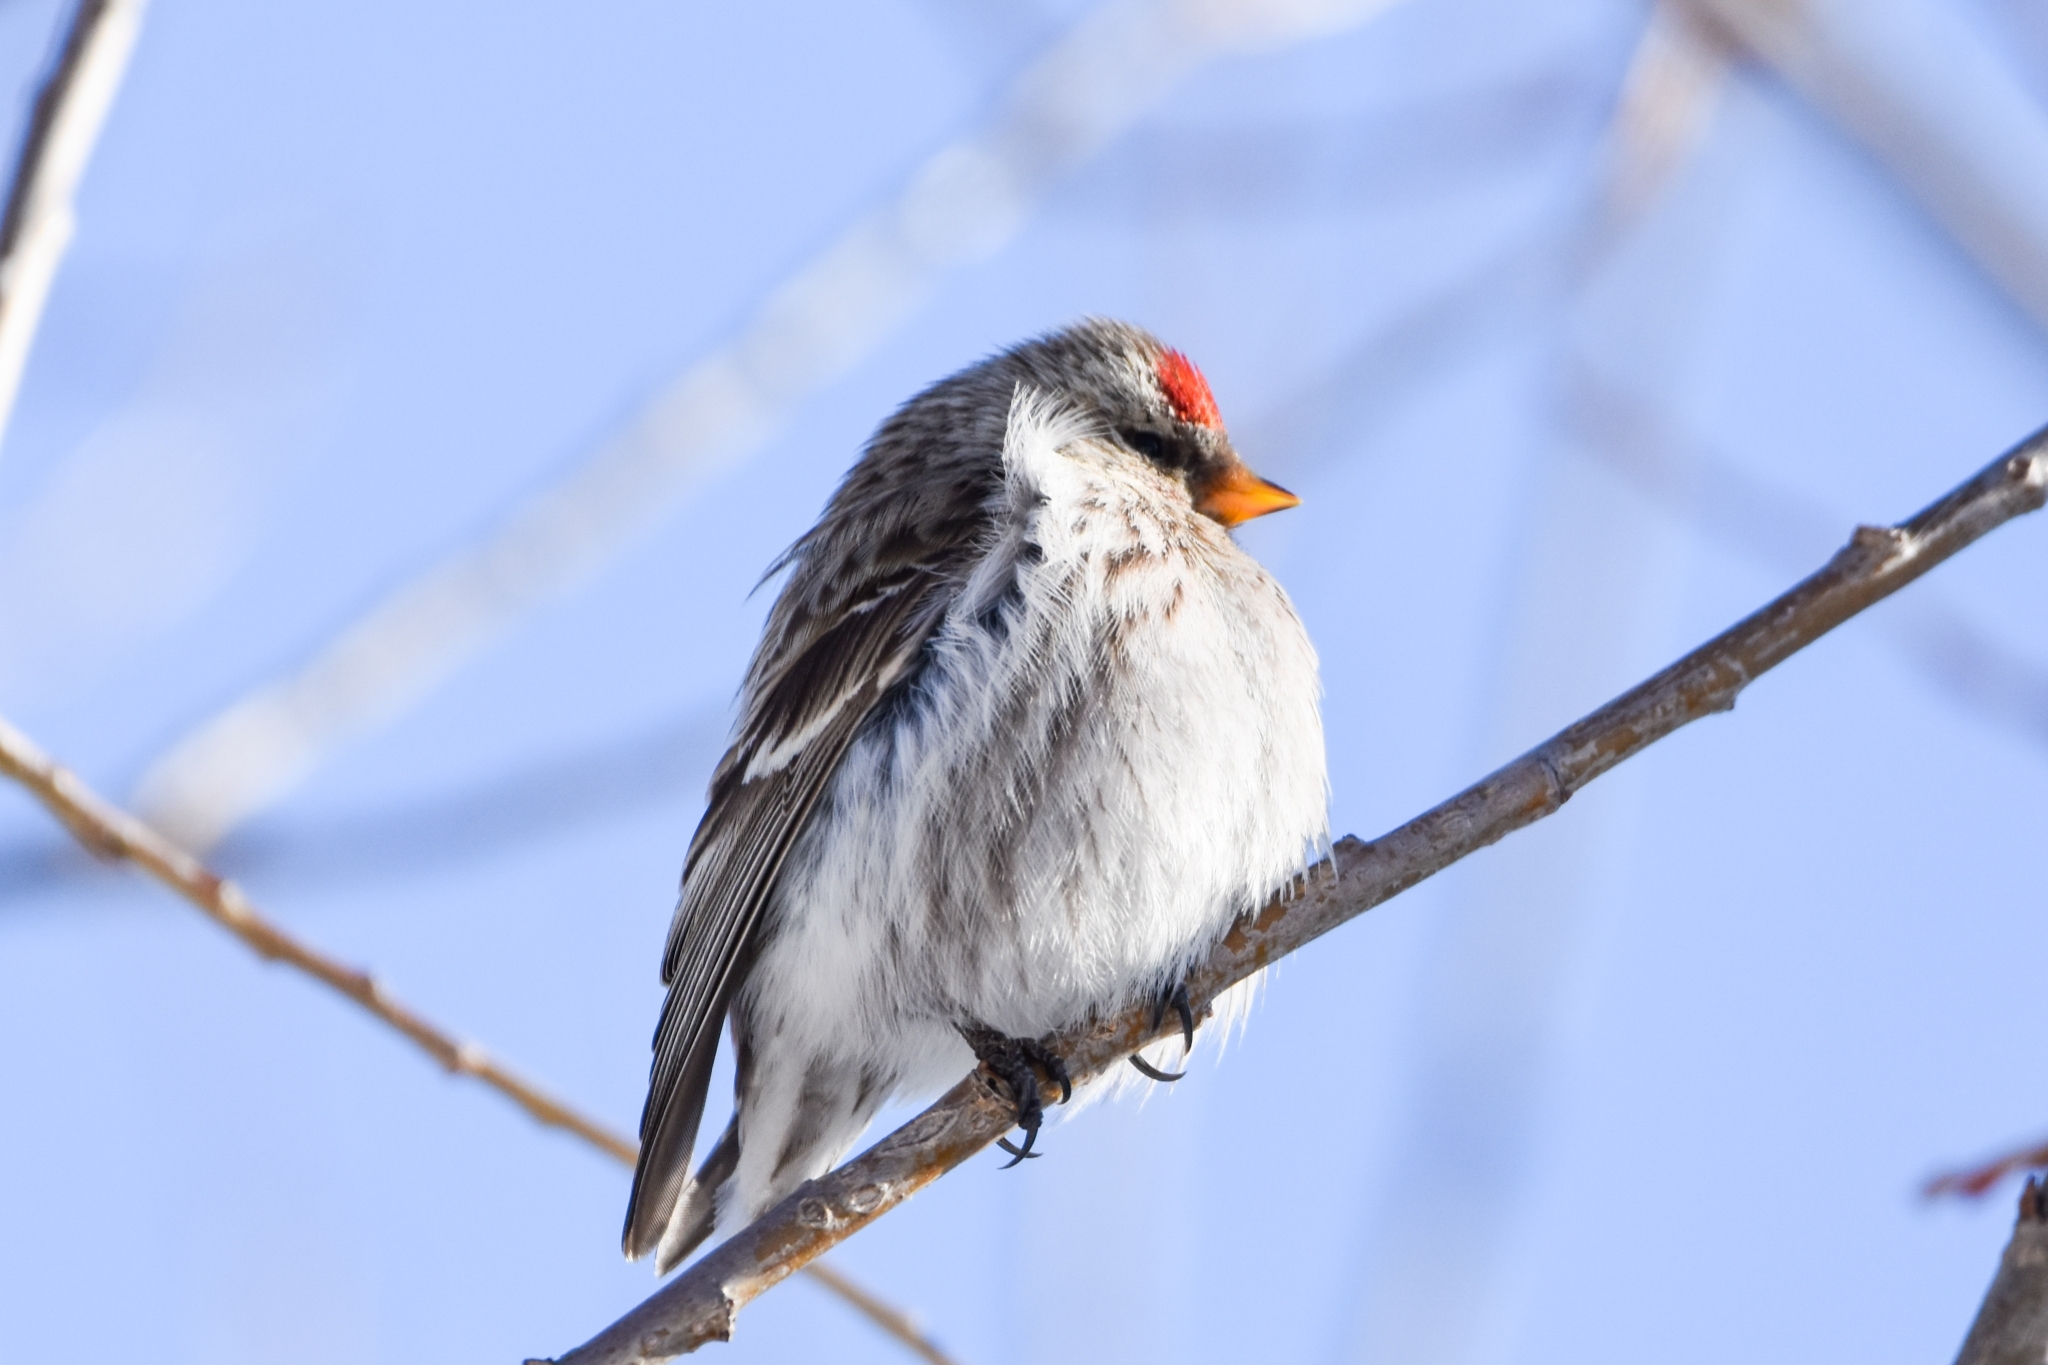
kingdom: Animalia
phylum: Chordata
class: Aves
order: Passeriformes
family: Fringillidae
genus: Acanthis
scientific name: Acanthis flammea
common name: Common redpoll
